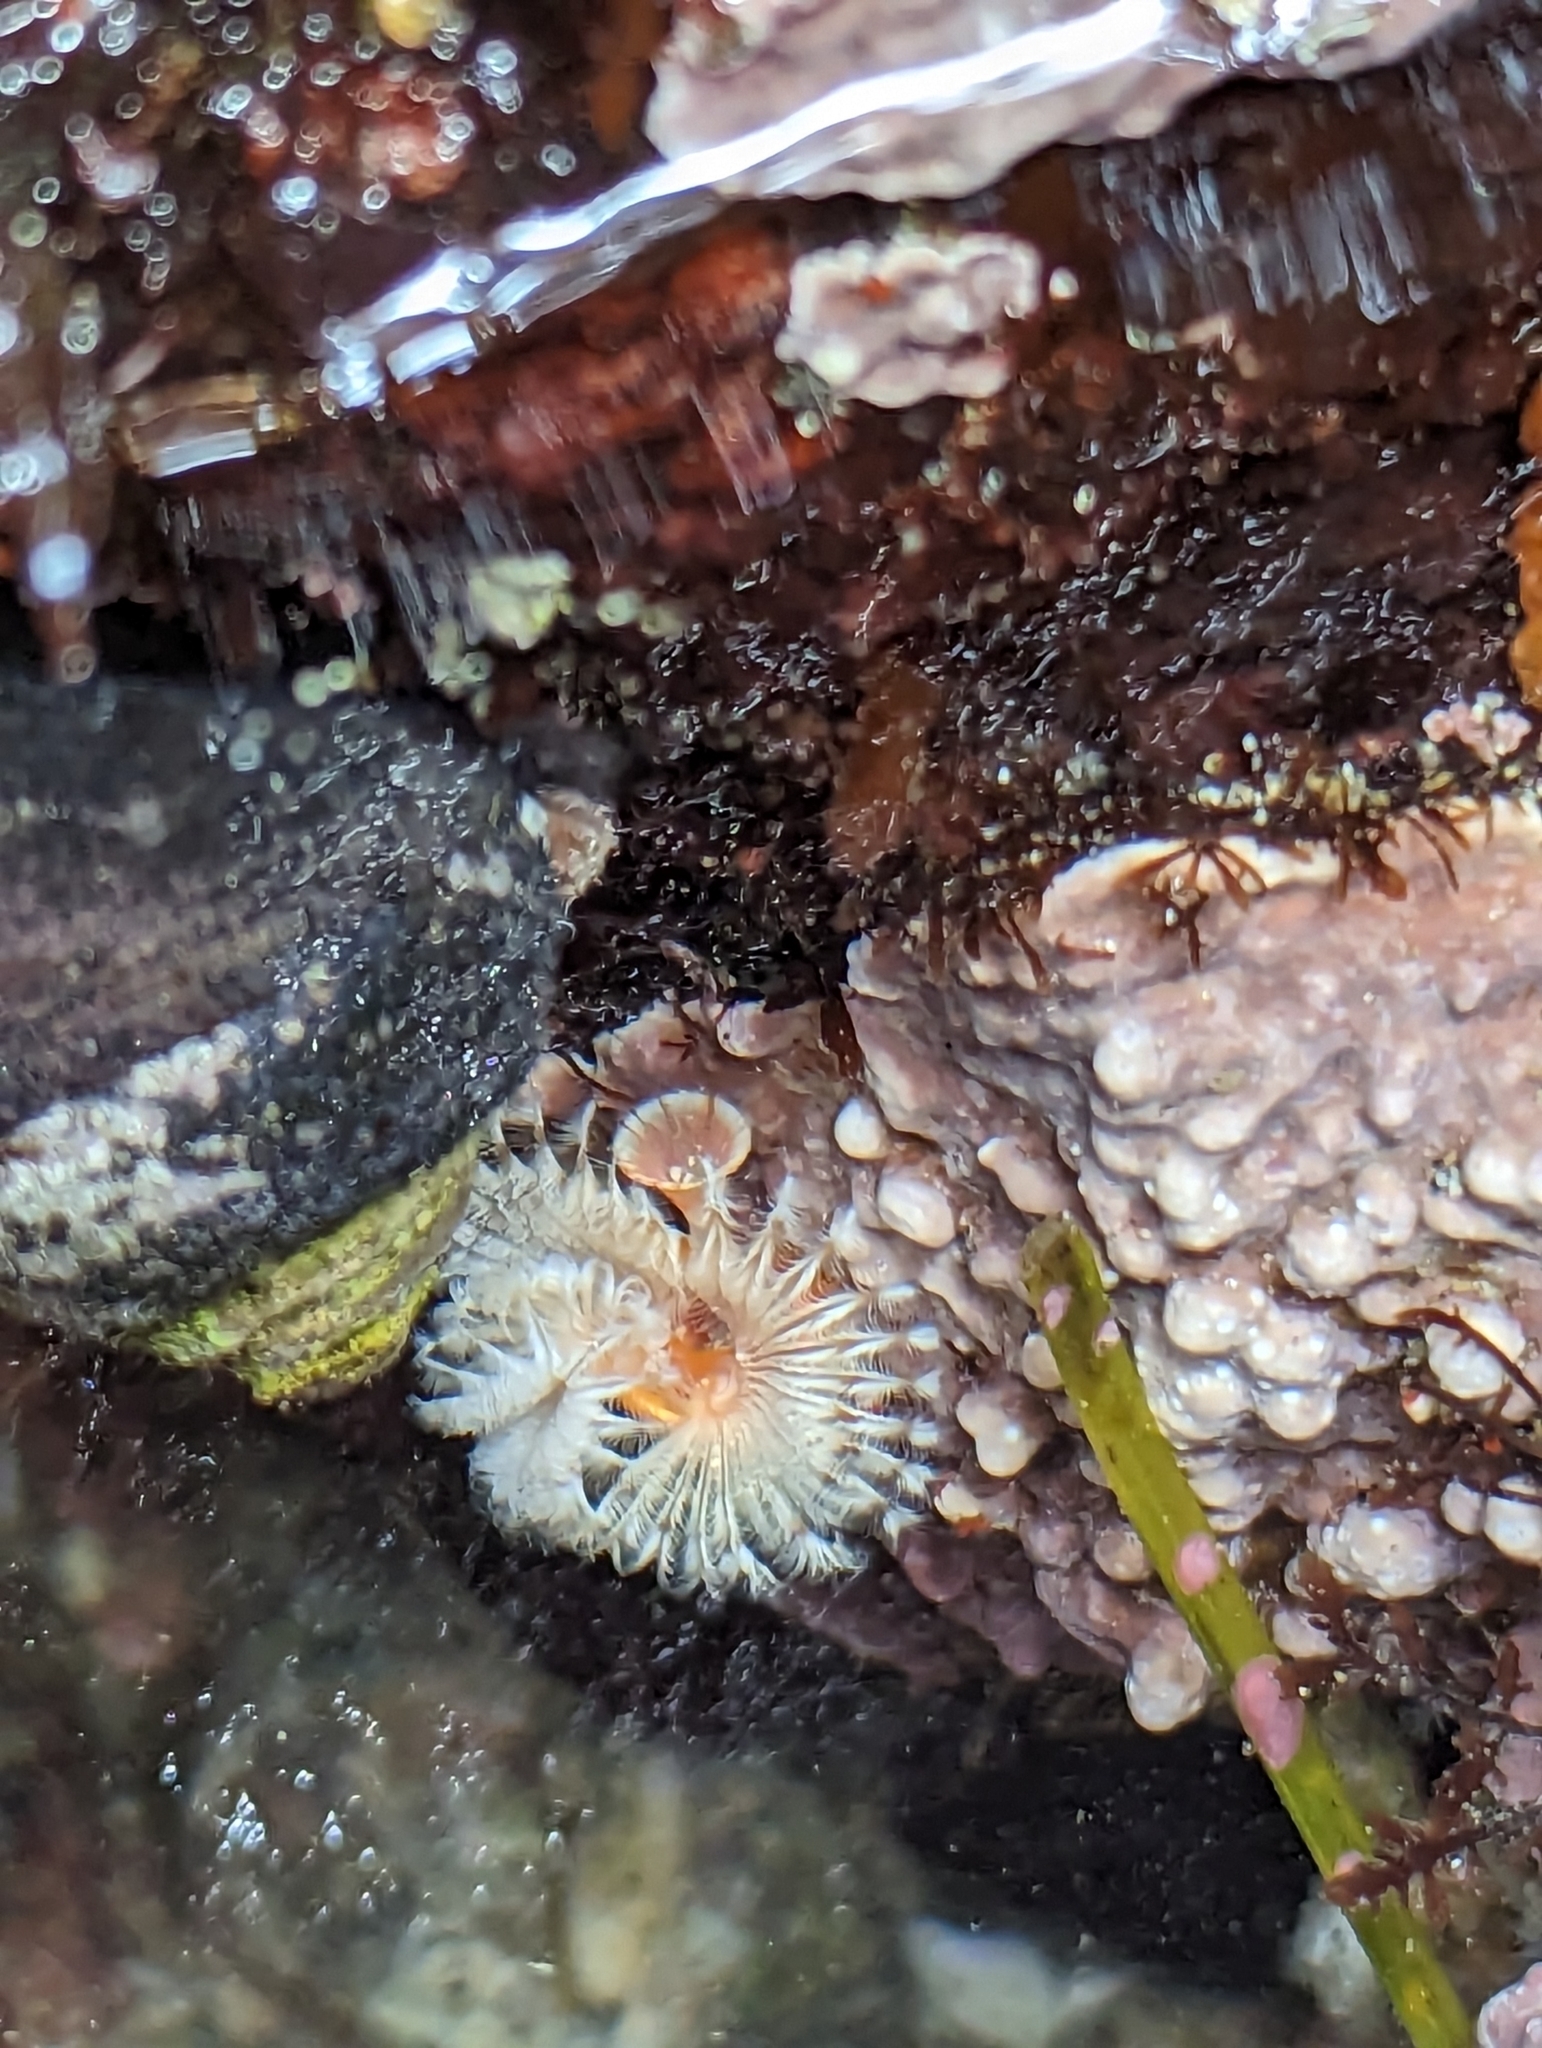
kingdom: Animalia
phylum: Annelida
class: Polychaeta
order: Sabellida
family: Serpulidae
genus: Serpula
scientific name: Serpula columbiana
